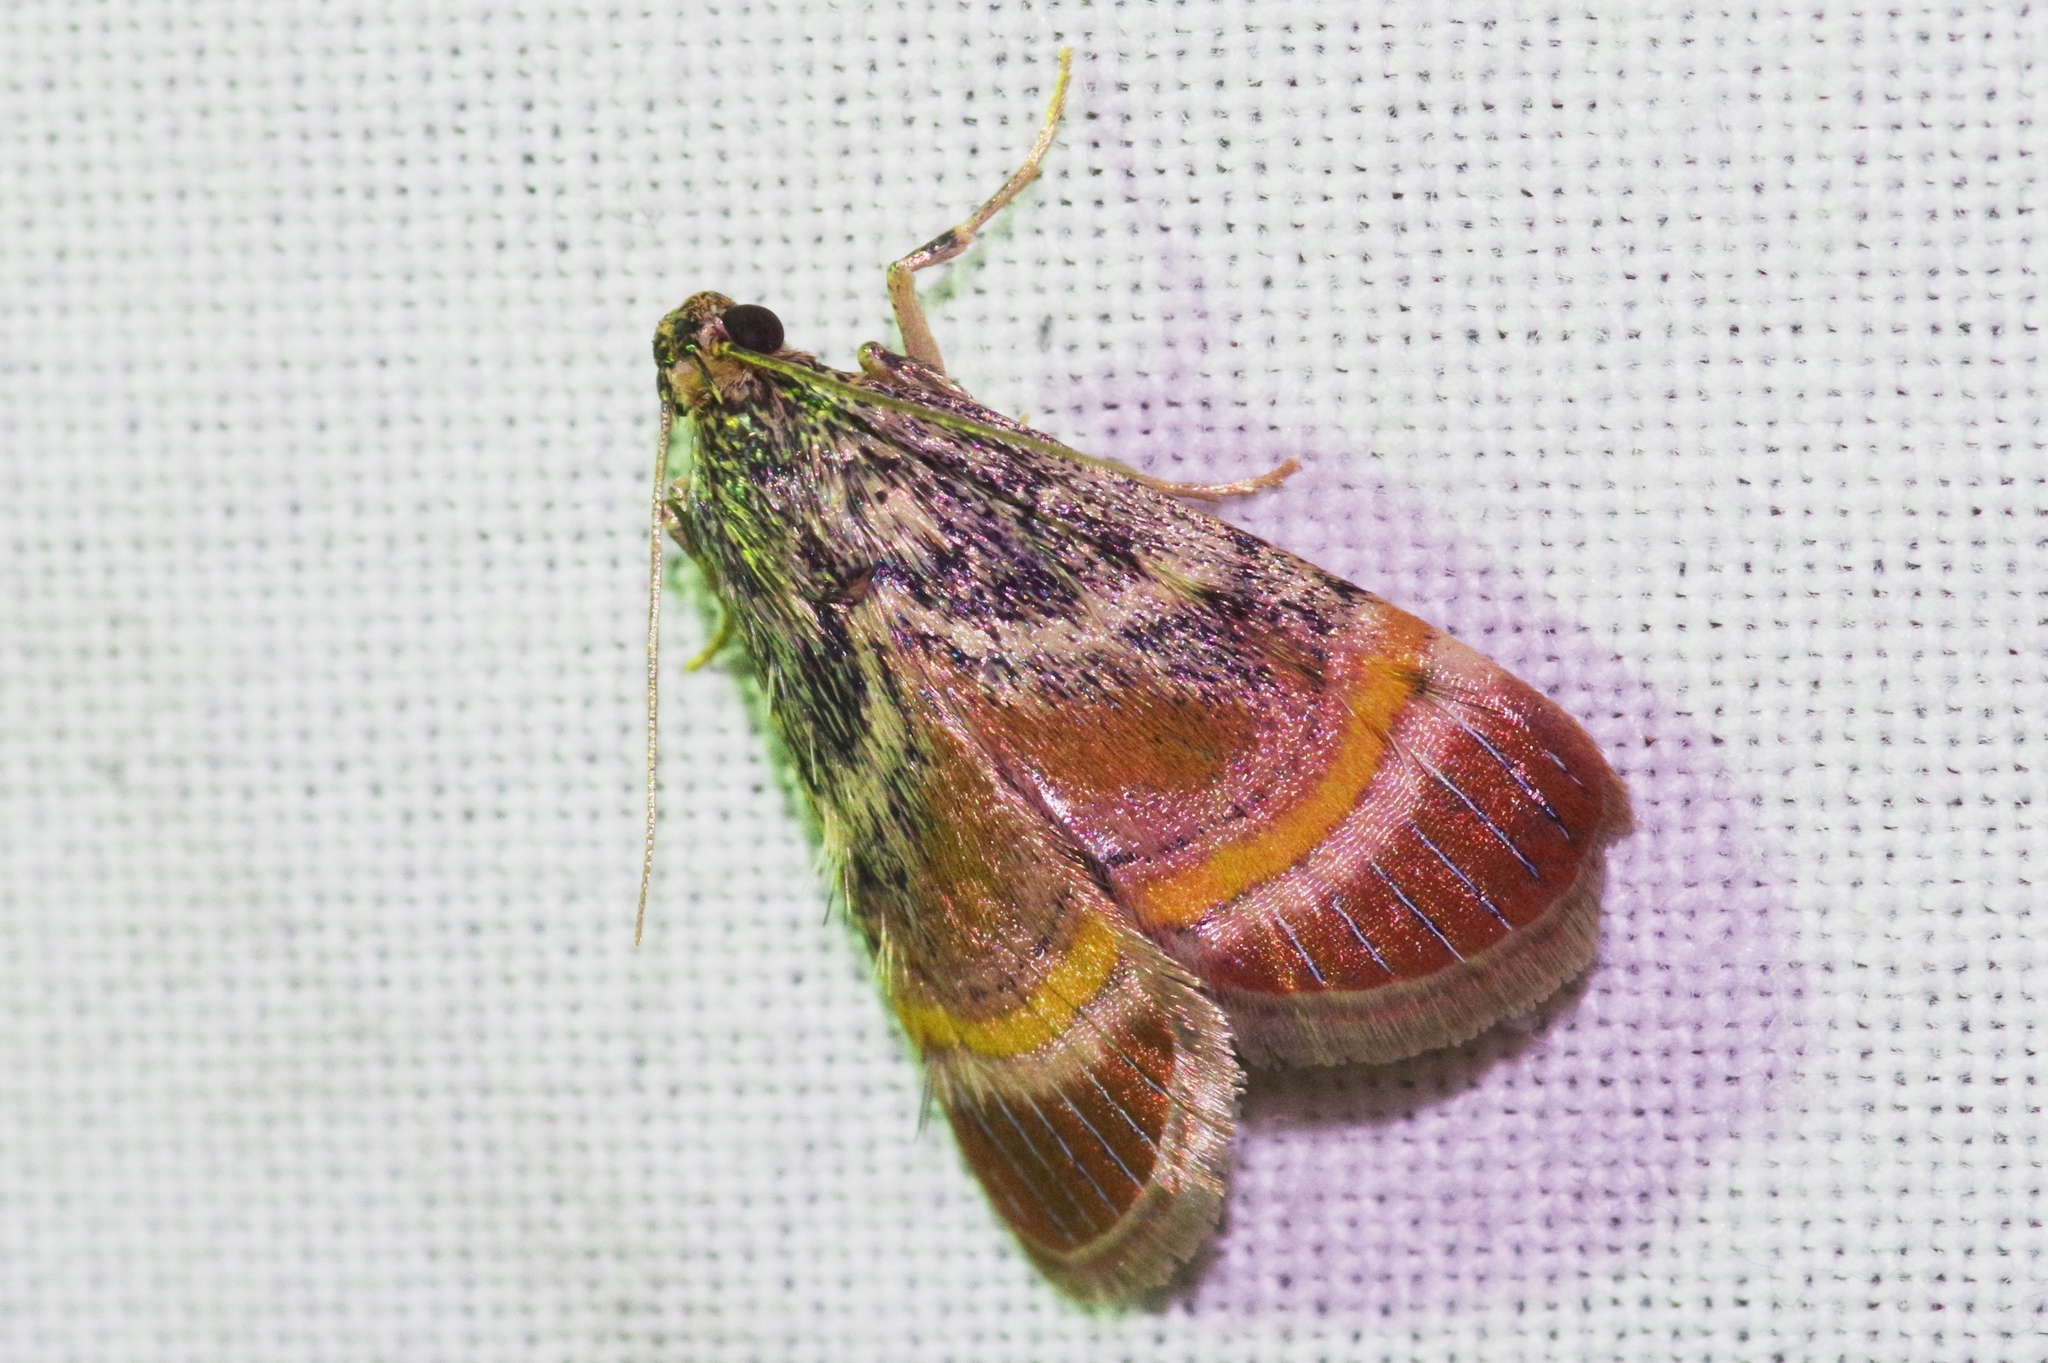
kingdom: Animalia
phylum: Arthropoda
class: Insecta
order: Lepidoptera
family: Pyralidae
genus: Lista
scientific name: Lista ficki
